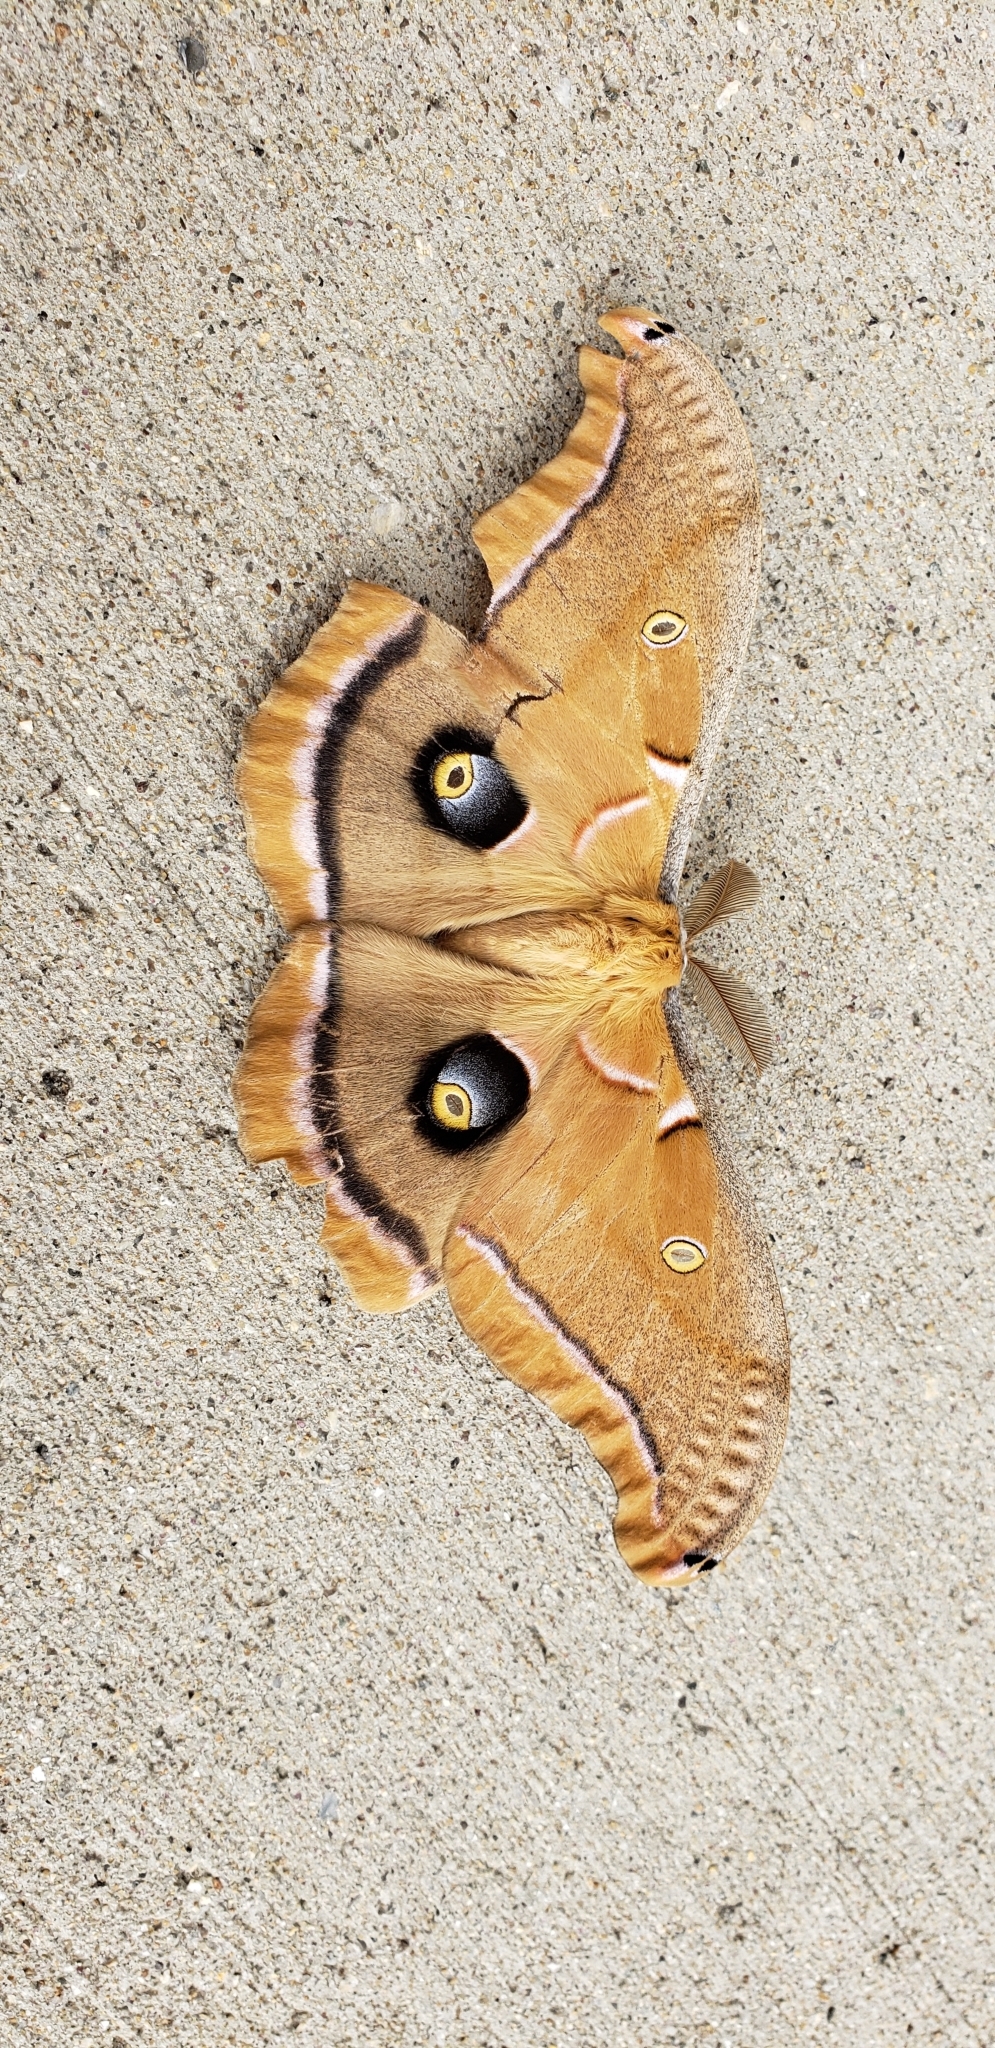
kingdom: Animalia
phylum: Arthropoda
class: Insecta
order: Lepidoptera
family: Saturniidae
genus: Antheraea
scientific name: Antheraea polyphemus
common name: Polyphemus moth
